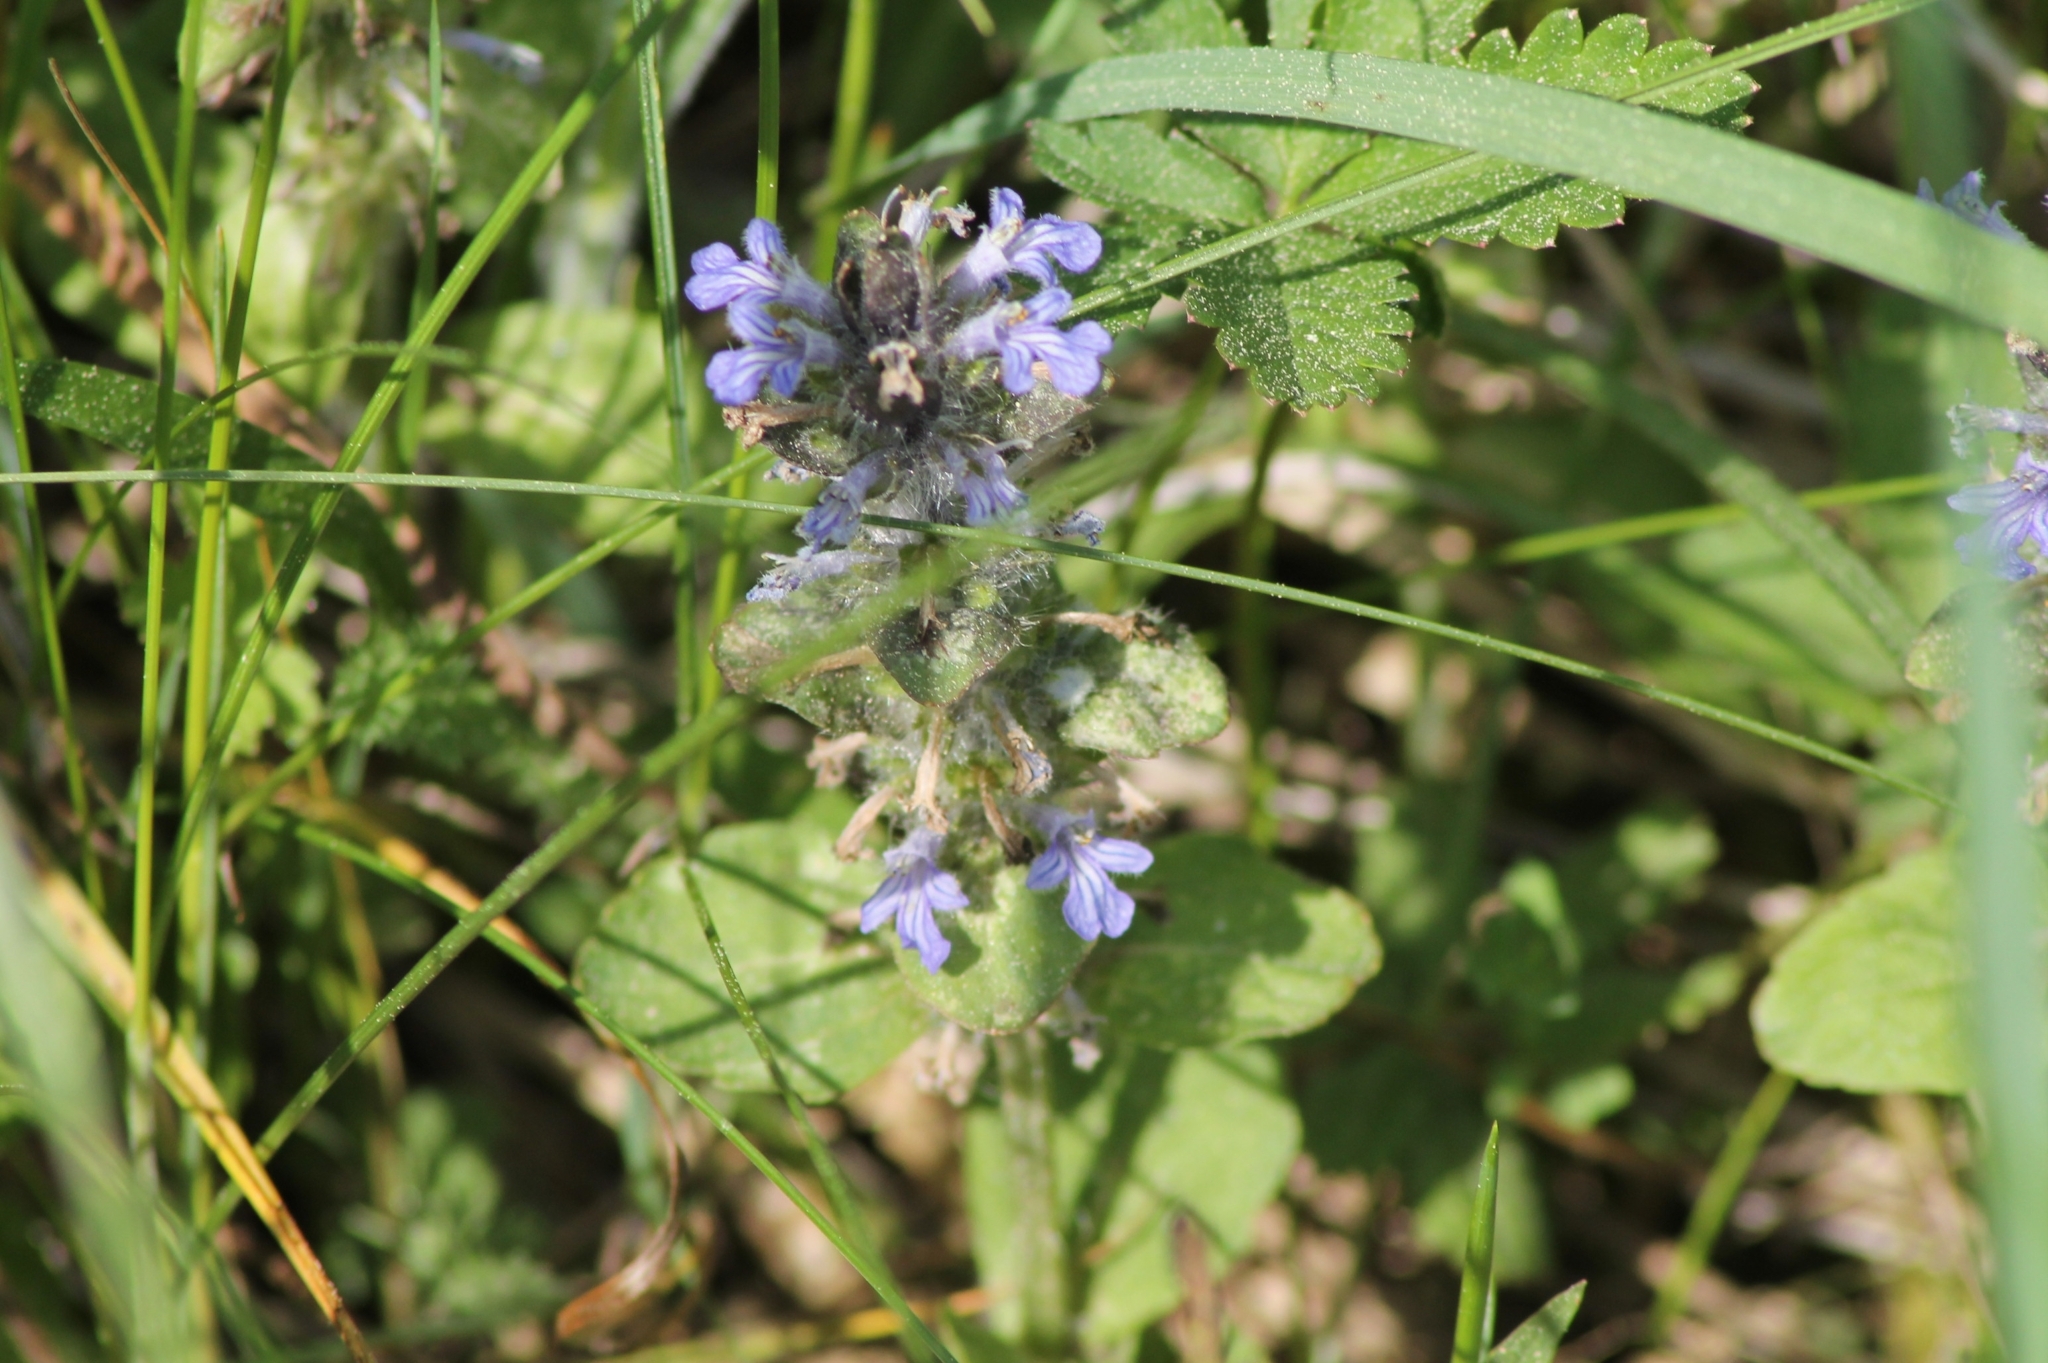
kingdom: Plantae
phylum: Tracheophyta
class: Magnoliopsida
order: Lamiales
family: Lamiaceae
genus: Ajuga
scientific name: Ajuga reptans
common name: Bugle
